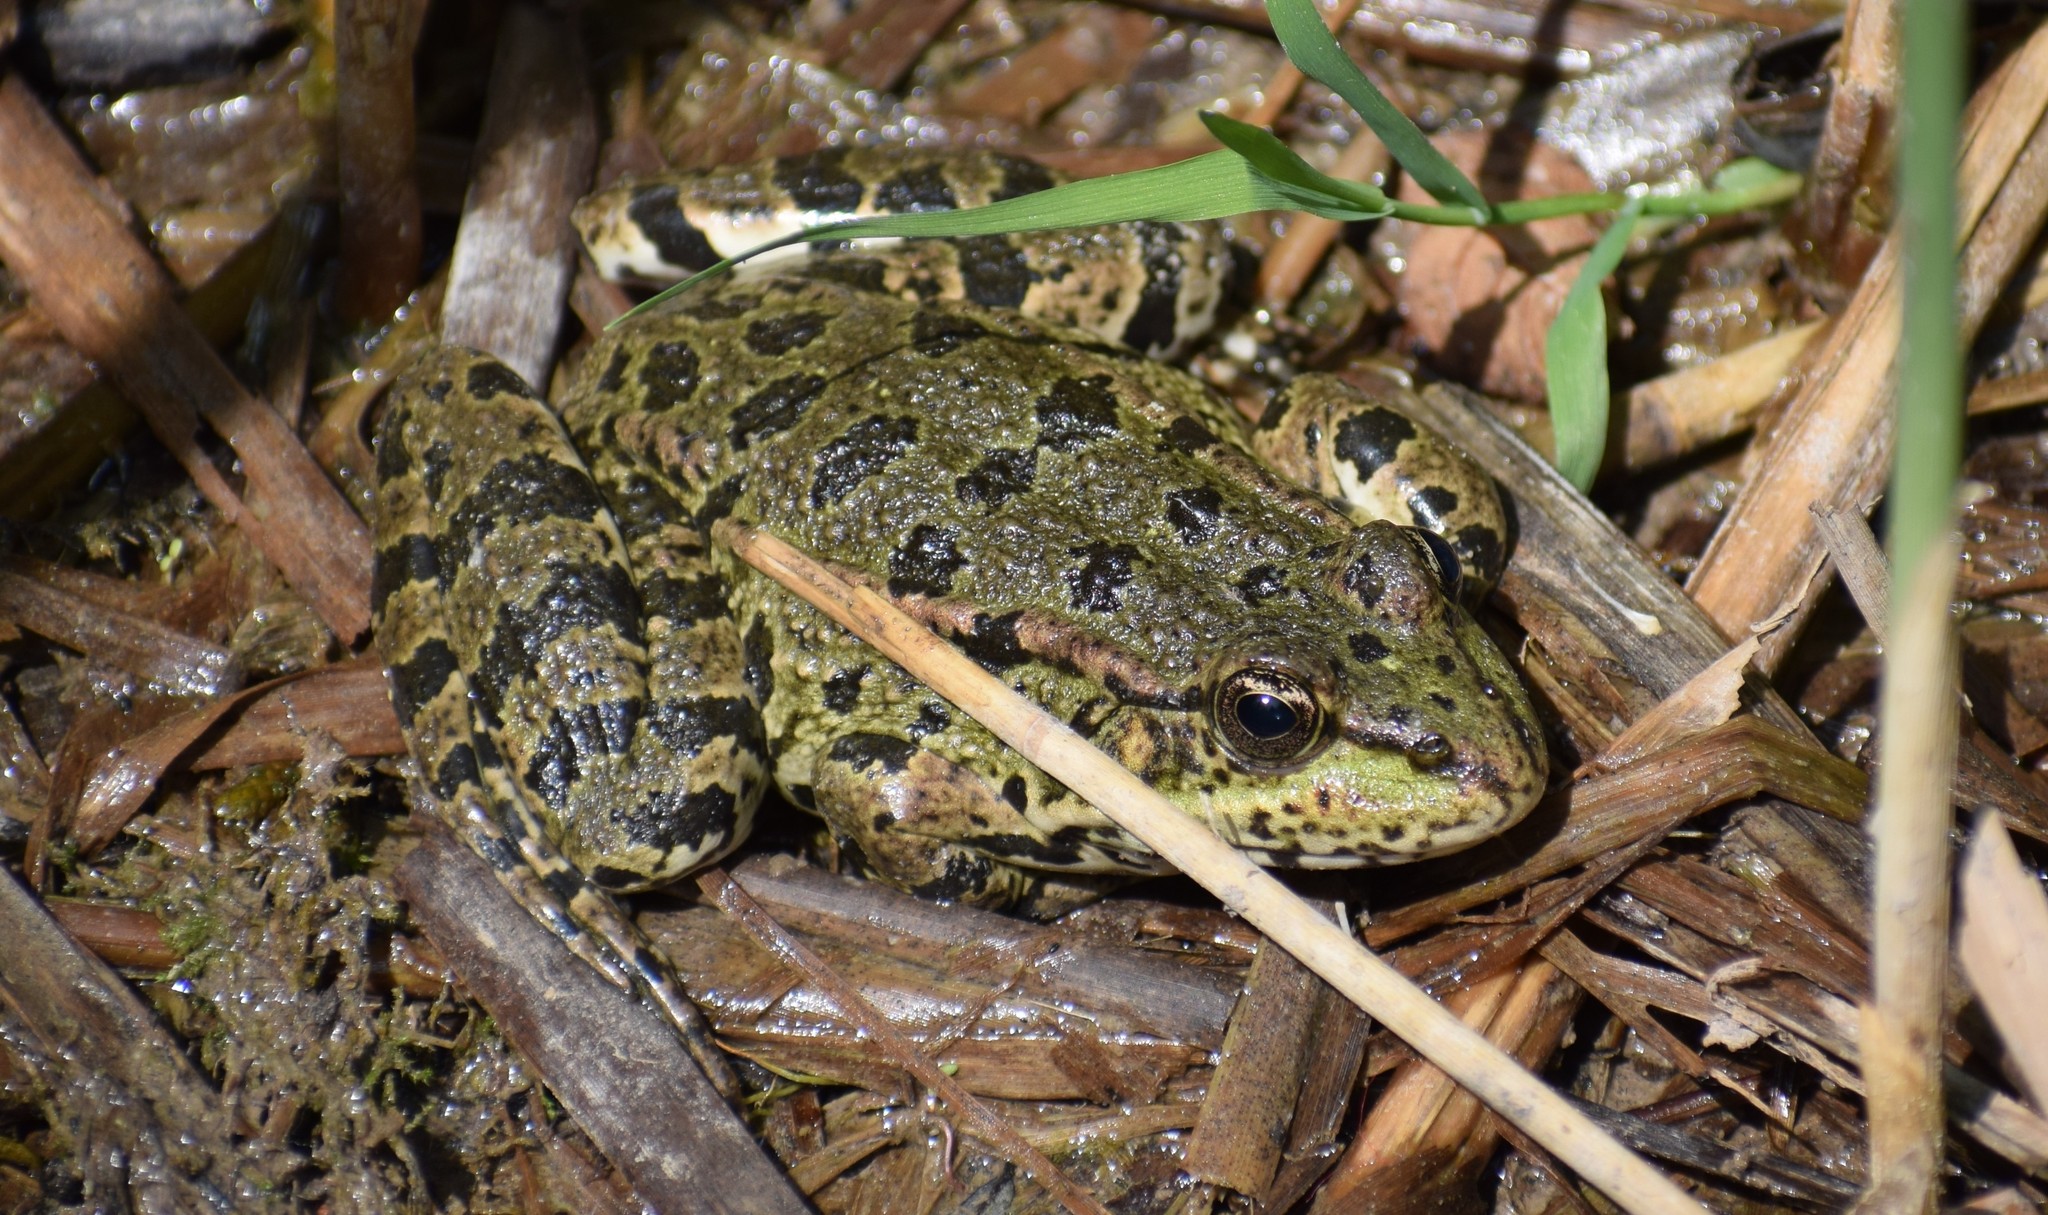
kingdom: Animalia
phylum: Chordata
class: Amphibia
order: Anura
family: Ranidae
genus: Pelophylax
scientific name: Pelophylax
